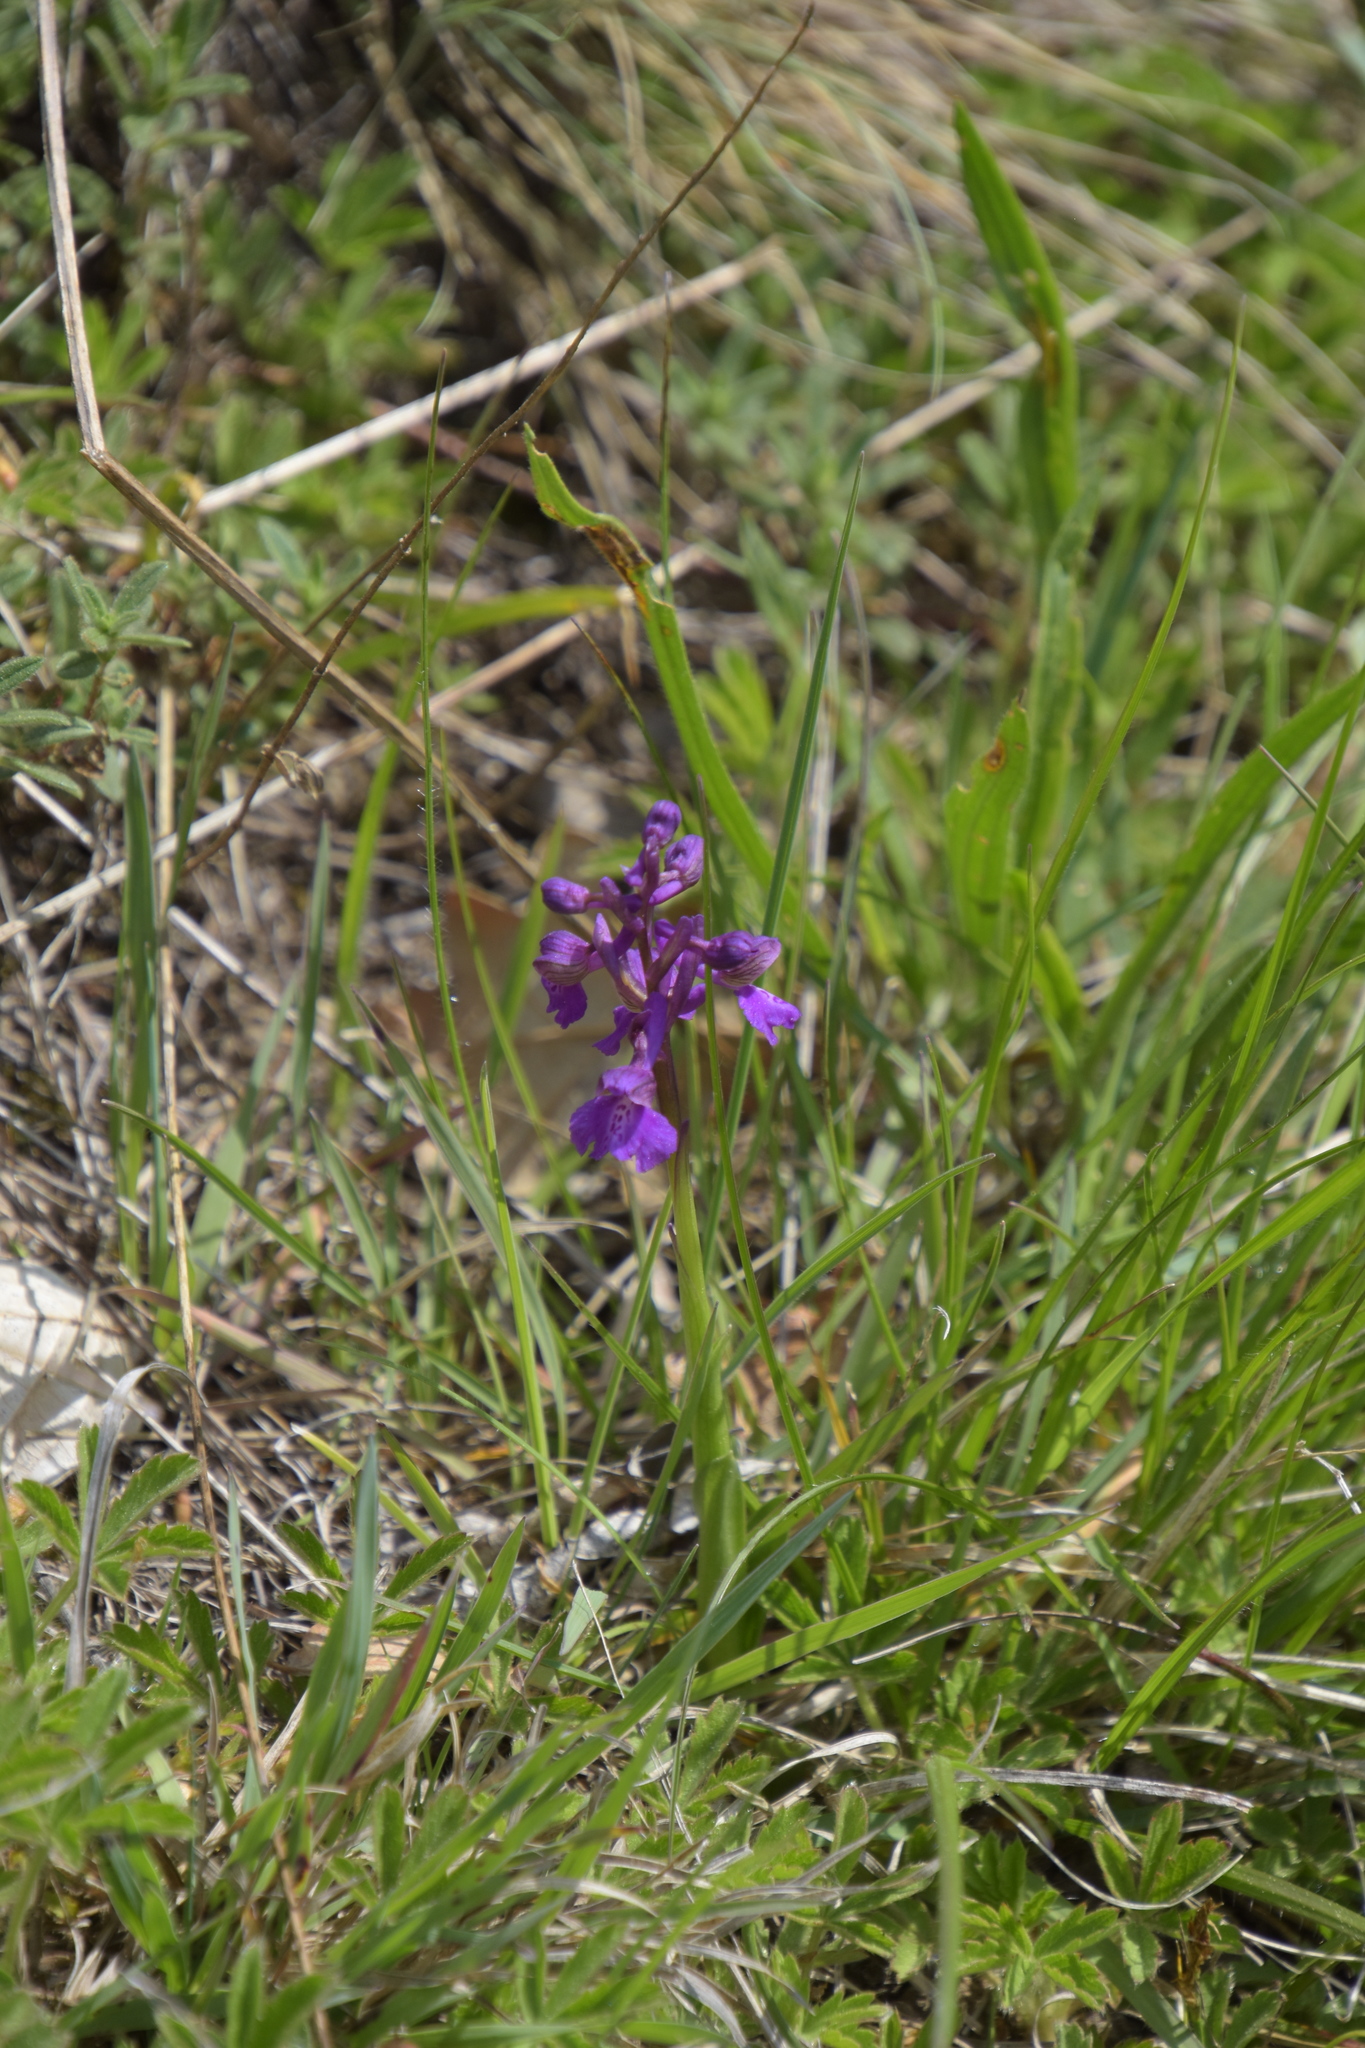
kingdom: Plantae
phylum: Tracheophyta
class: Liliopsida
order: Asparagales
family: Orchidaceae
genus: Anacamptis
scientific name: Anacamptis morio
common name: Green-winged orchid
